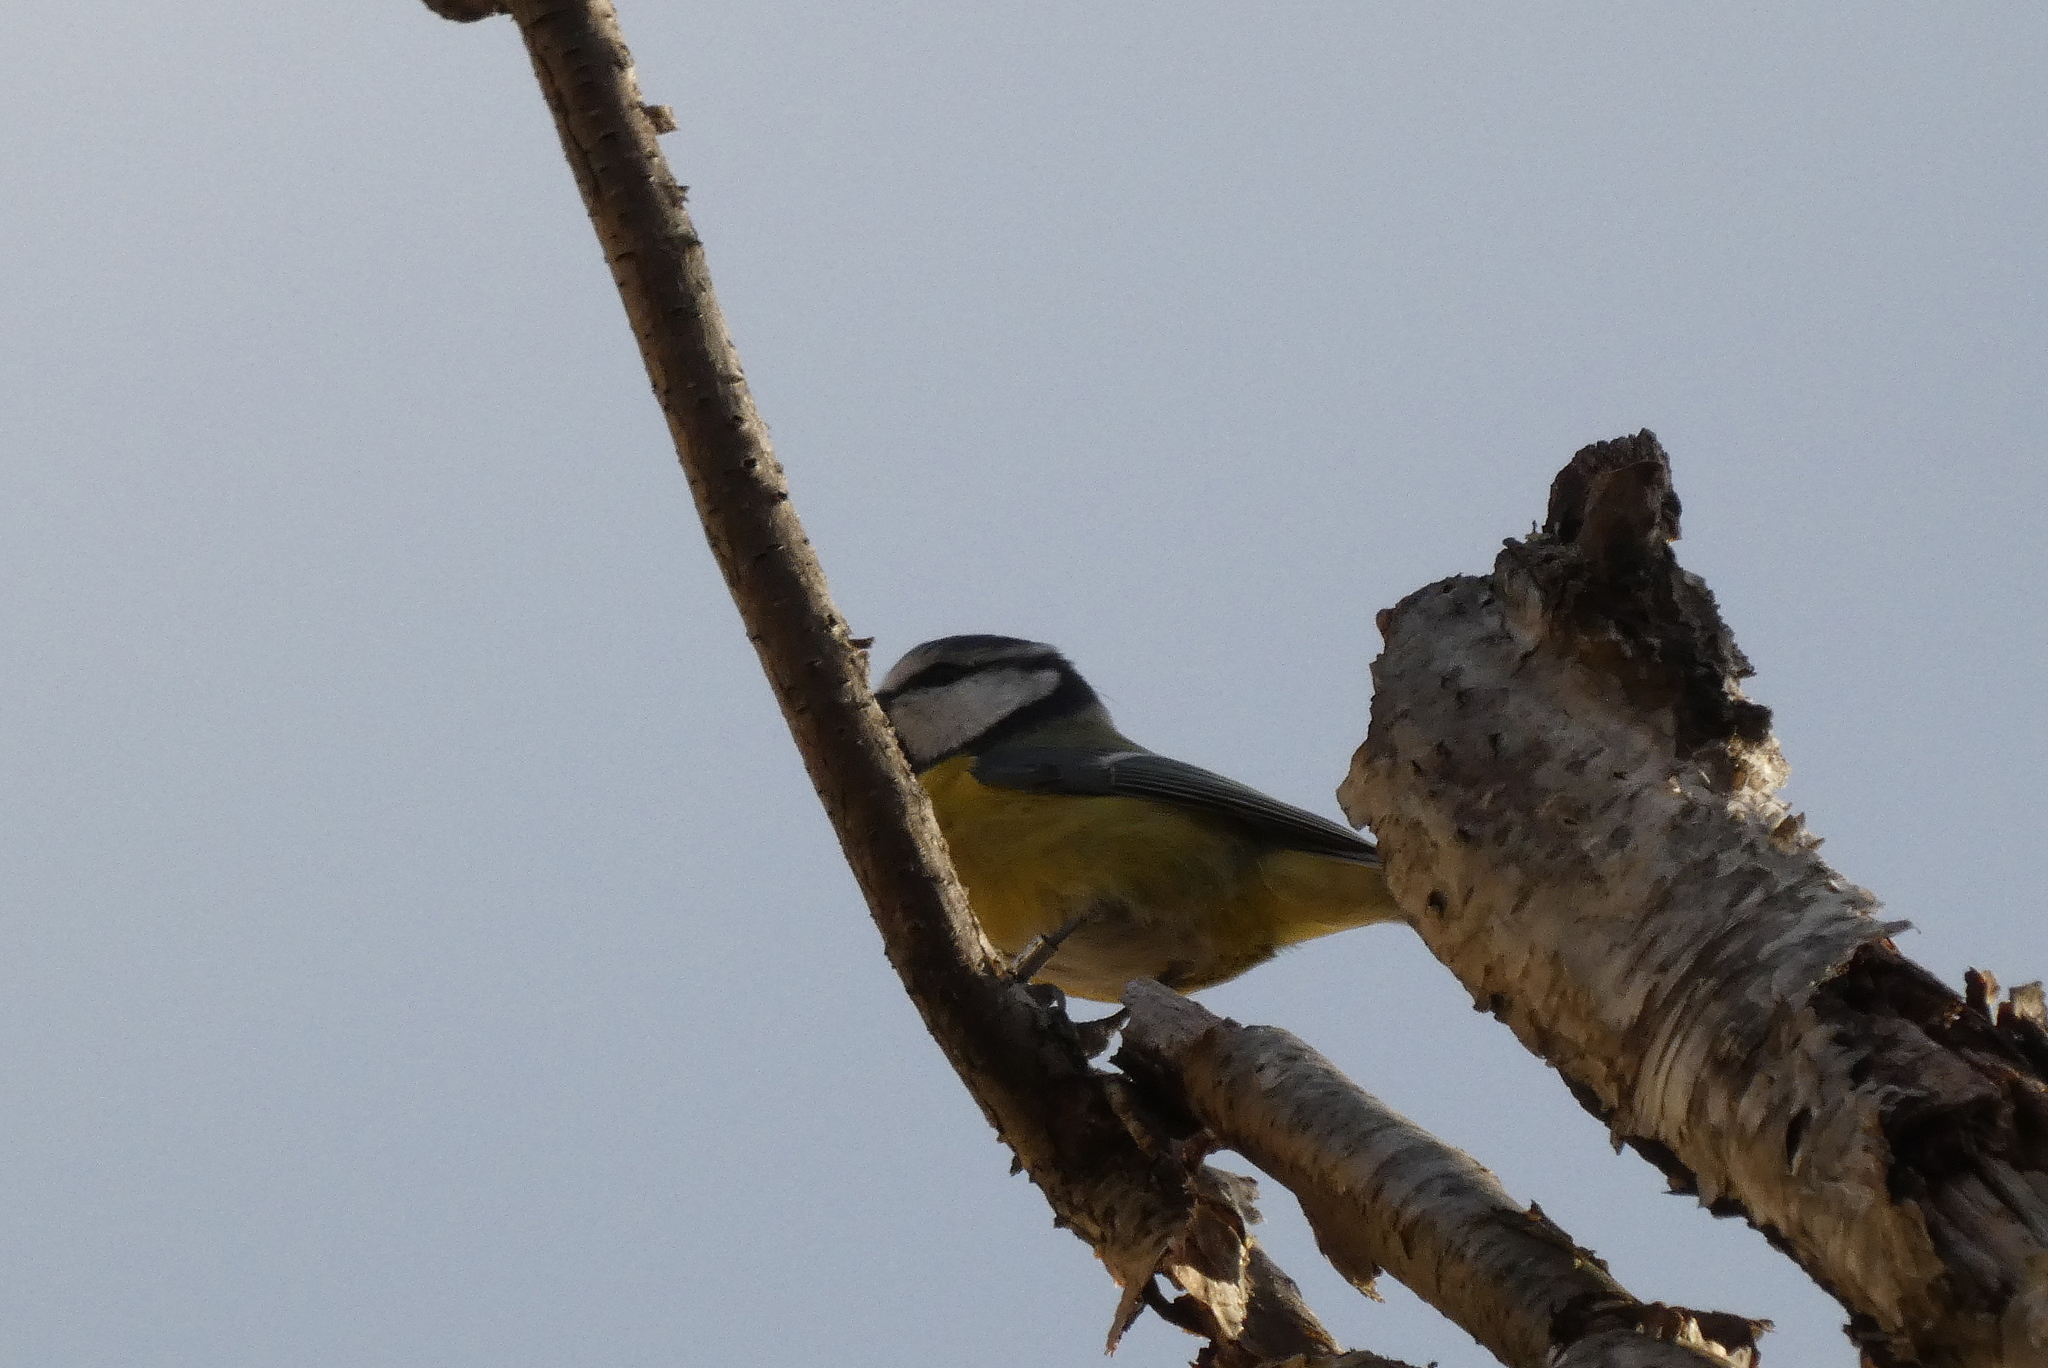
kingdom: Animalia
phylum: Chordata
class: Aves
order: Passeriformes
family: Paridae
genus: Cyanistes
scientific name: Cyanistes caeruleus
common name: Eurasian blue tit
